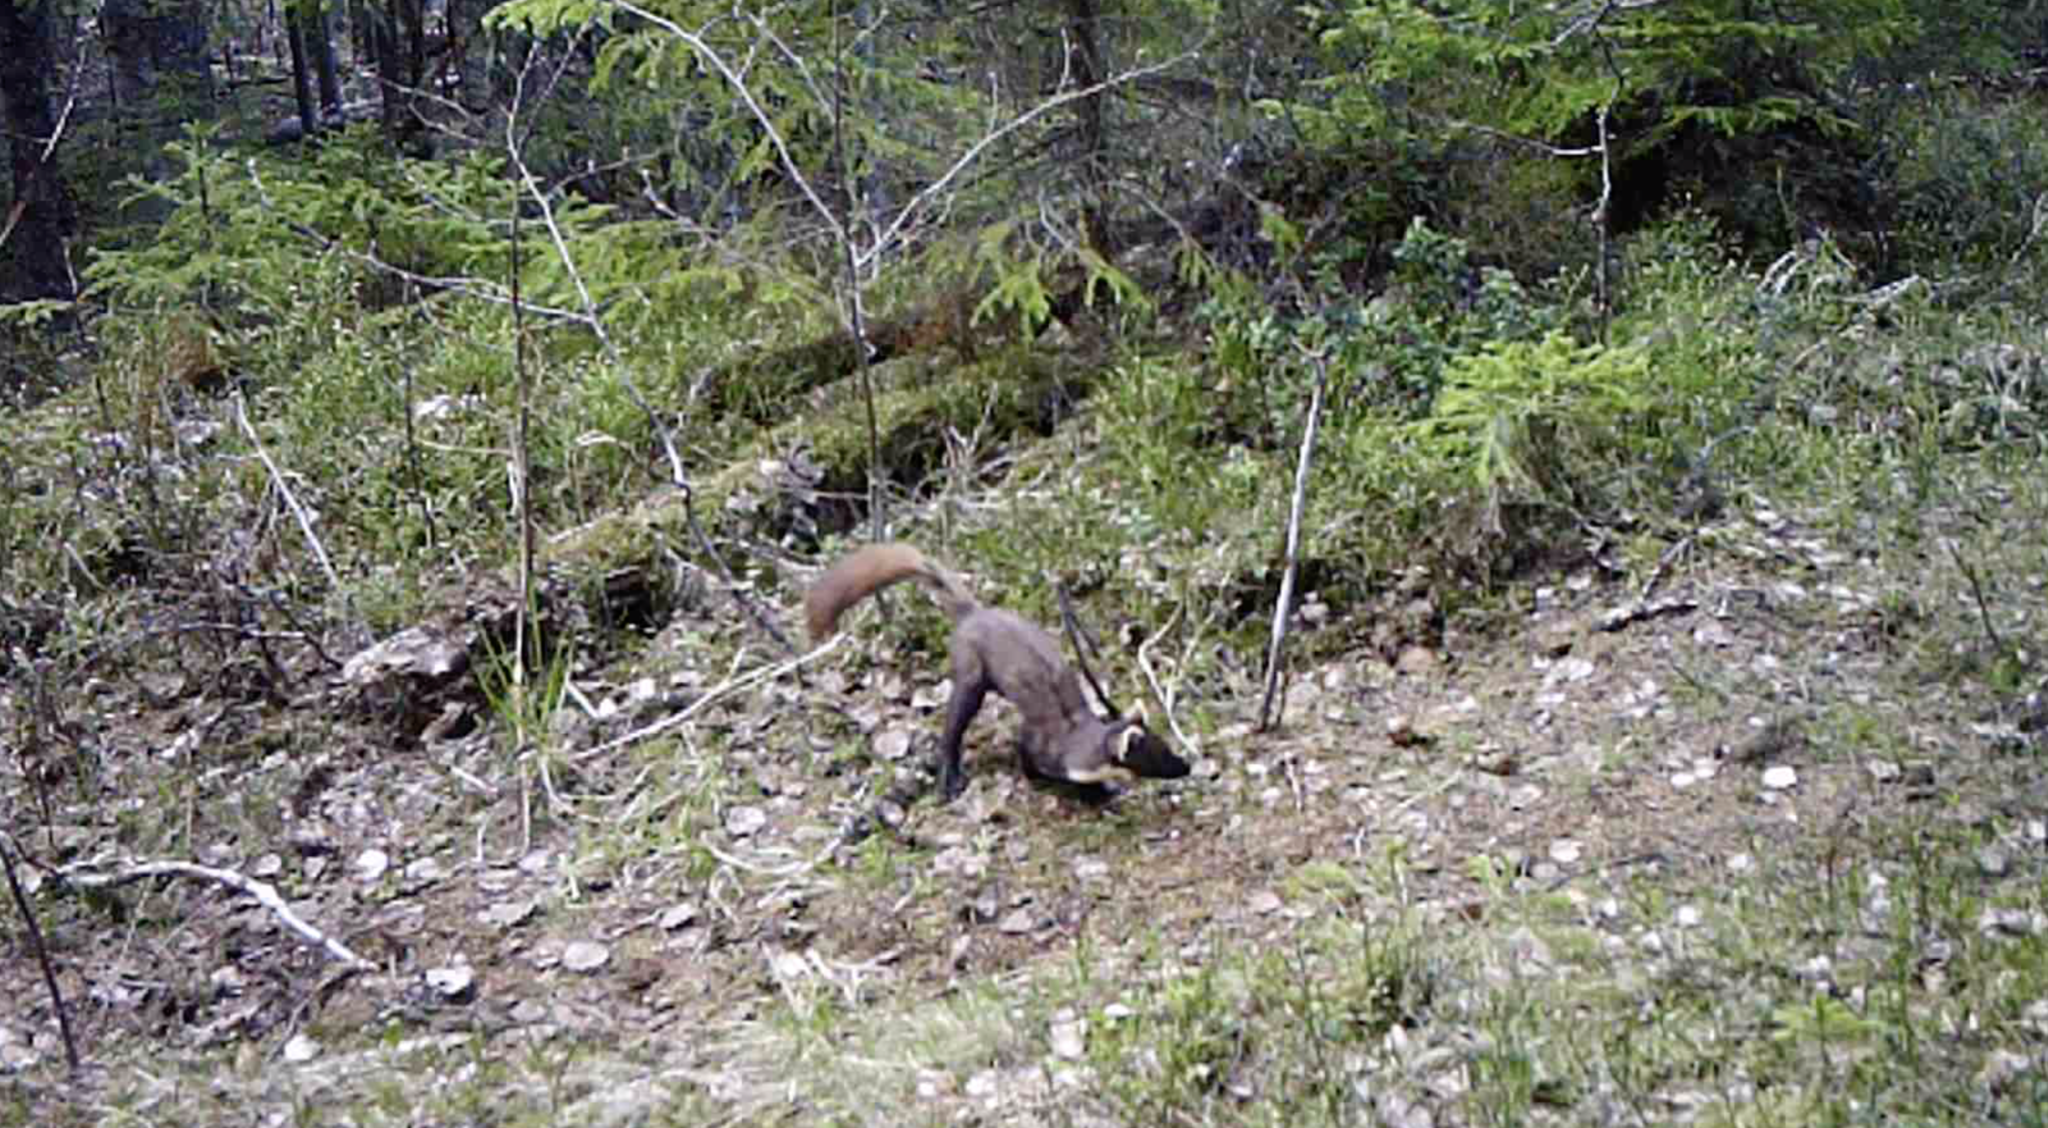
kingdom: Animalia
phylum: Chordata
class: Mammalia
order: Carnivora
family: Mustelidae
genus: Martes
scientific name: Martes martes
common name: European pine marten
